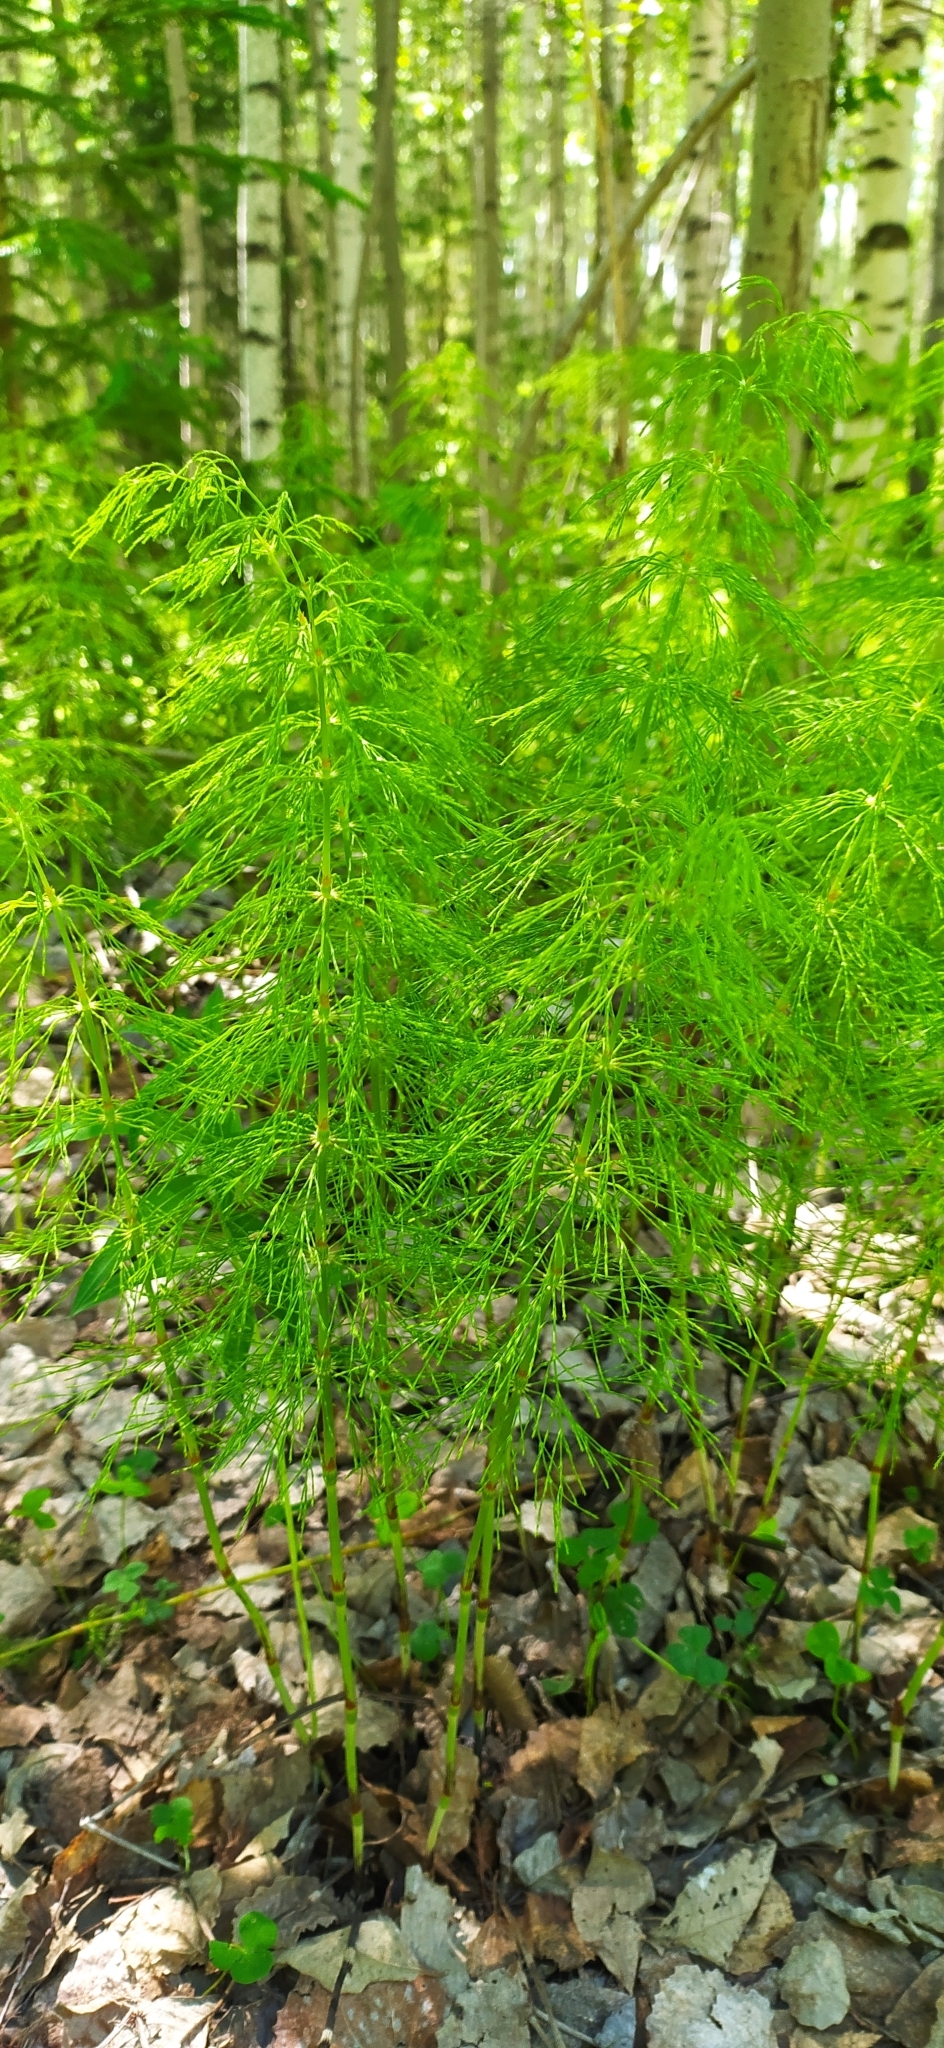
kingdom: Plantae
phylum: Tracheophyta
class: Polypodiopsida
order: Equisetales
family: Equisetaceae
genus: Equisetum
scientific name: Equisetum sylvaticum
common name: Wood horsetail
